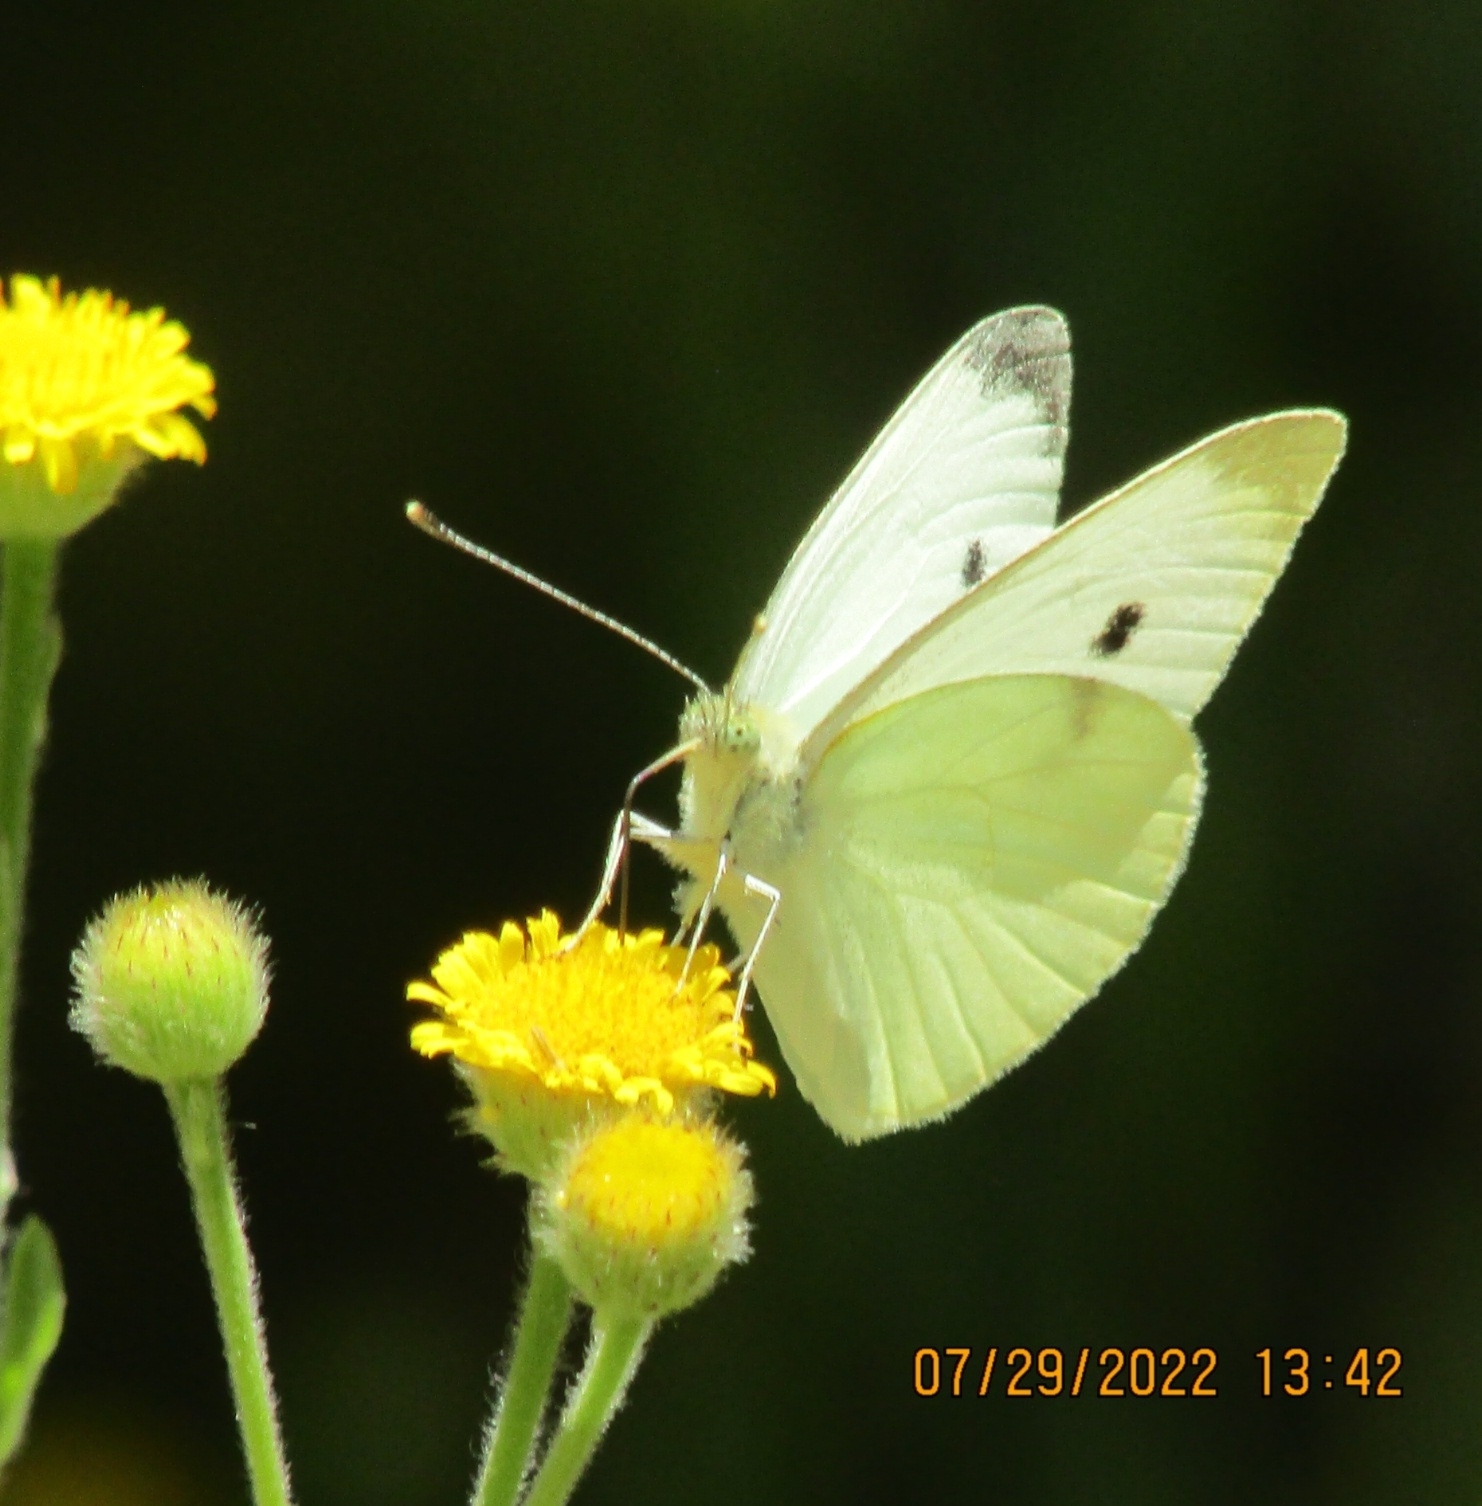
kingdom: Animalia
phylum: Arthropoda
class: Insecta
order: Lepidoptera
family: Pieridae
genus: Pieris
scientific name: Pieris rapae
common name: Small white
